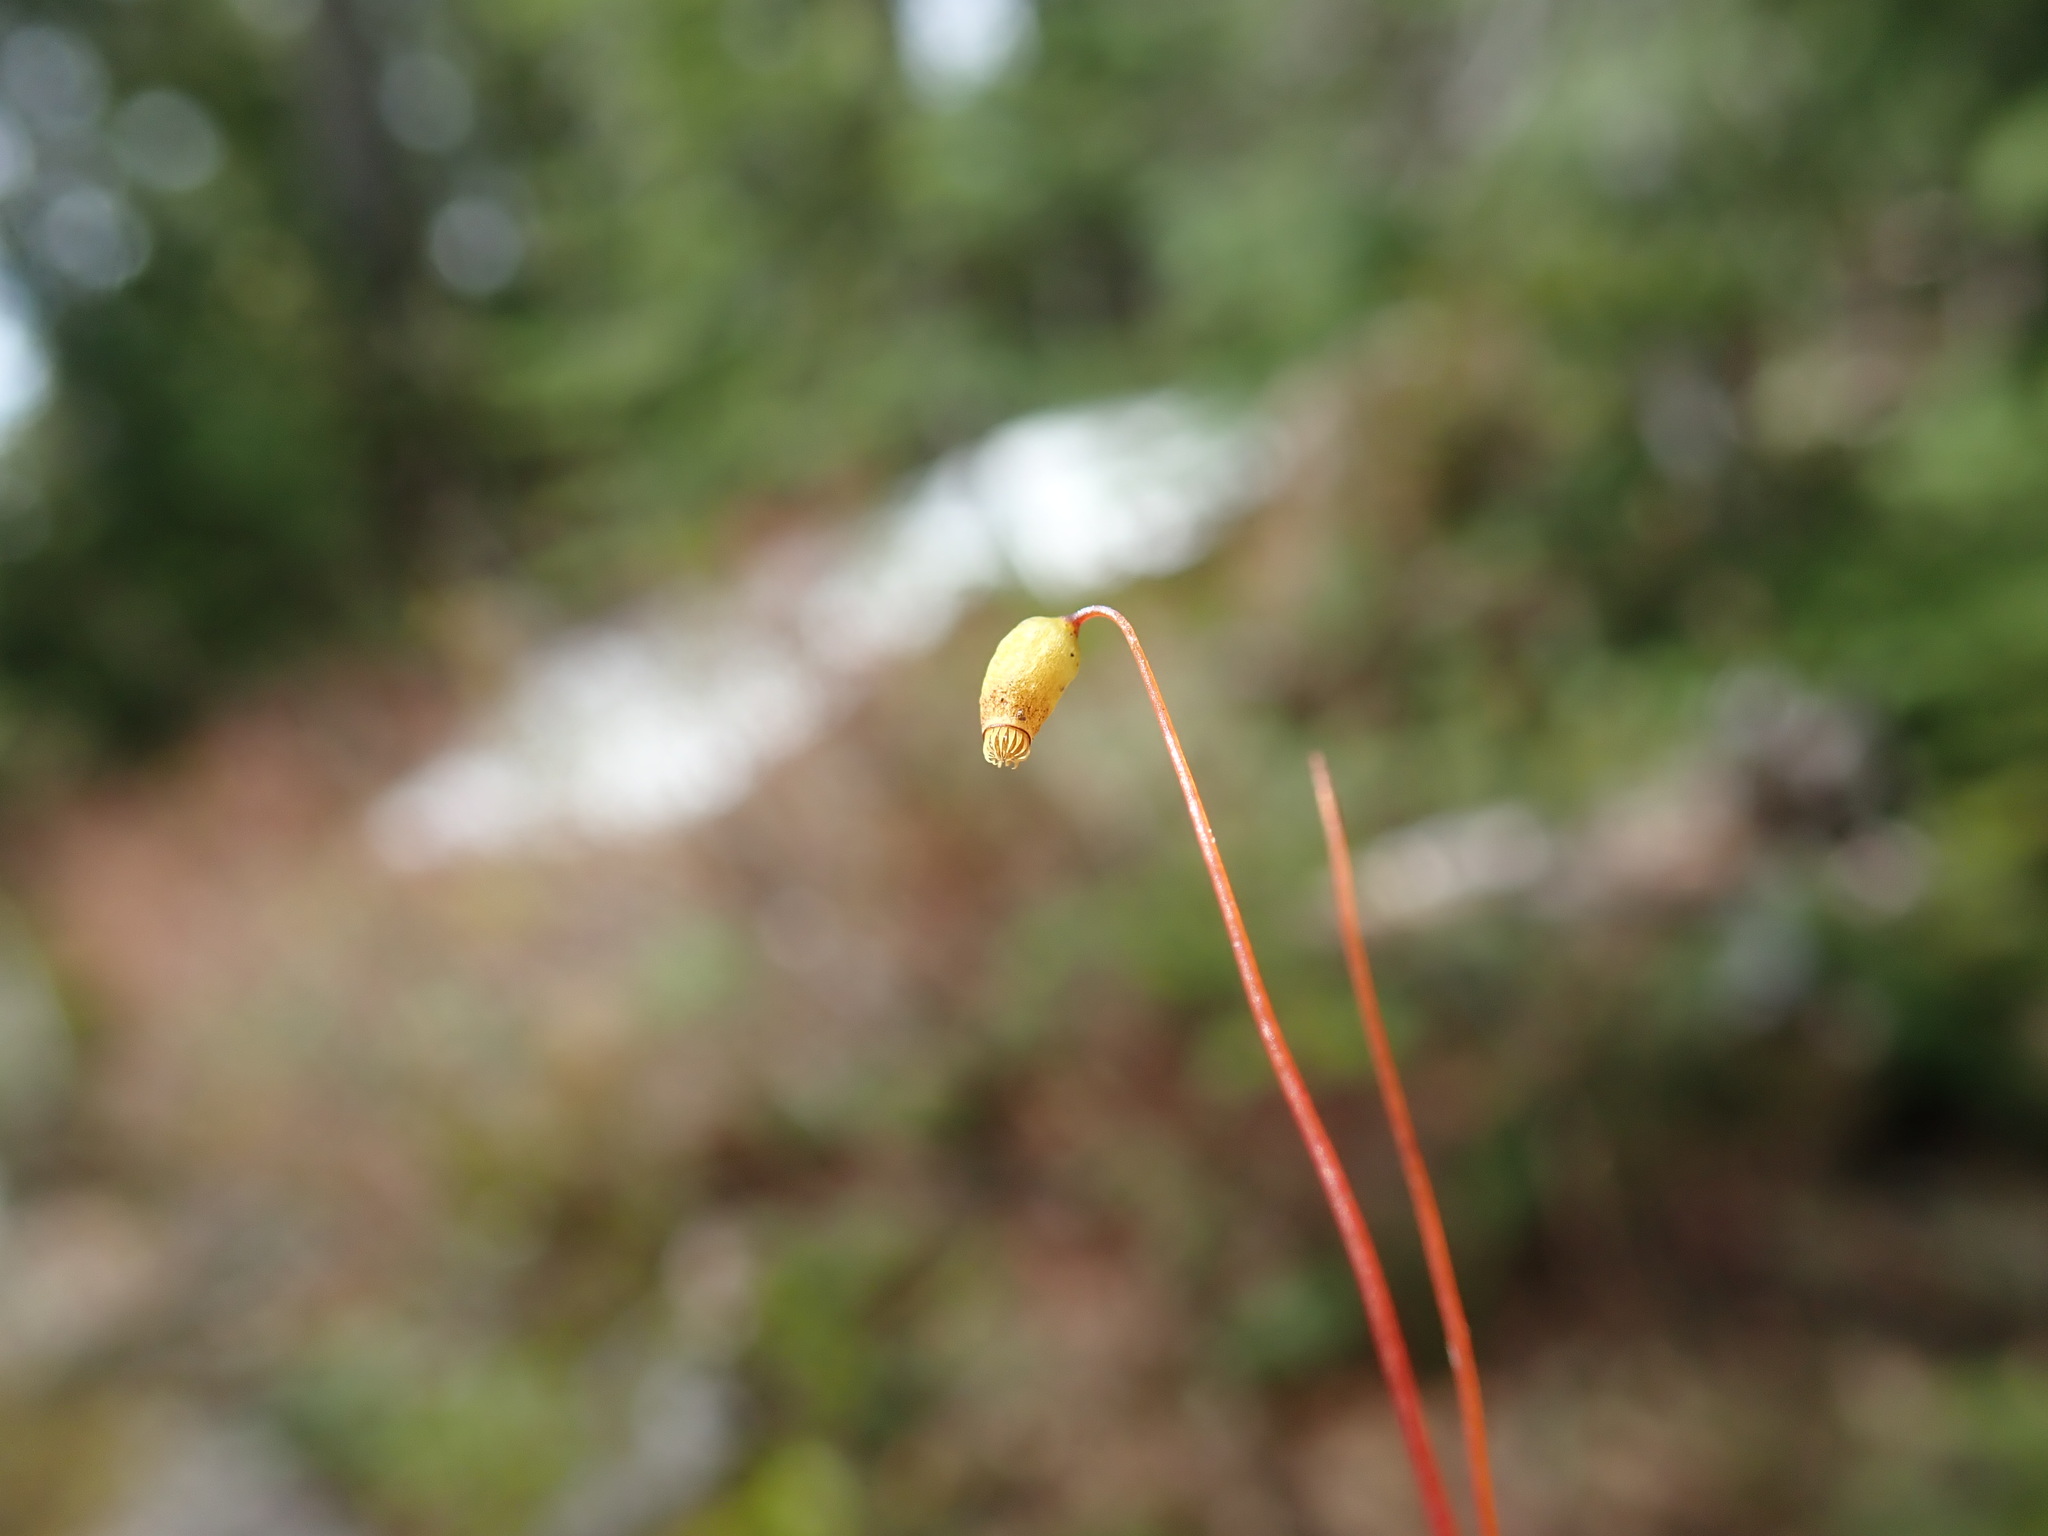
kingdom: Plantae
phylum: Bryophyta
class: Bryopsida
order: Bryales
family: Mniaceae
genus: Rhizomnium
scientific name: Rhizomnium magnifolium
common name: Large-leaved leafy moss
